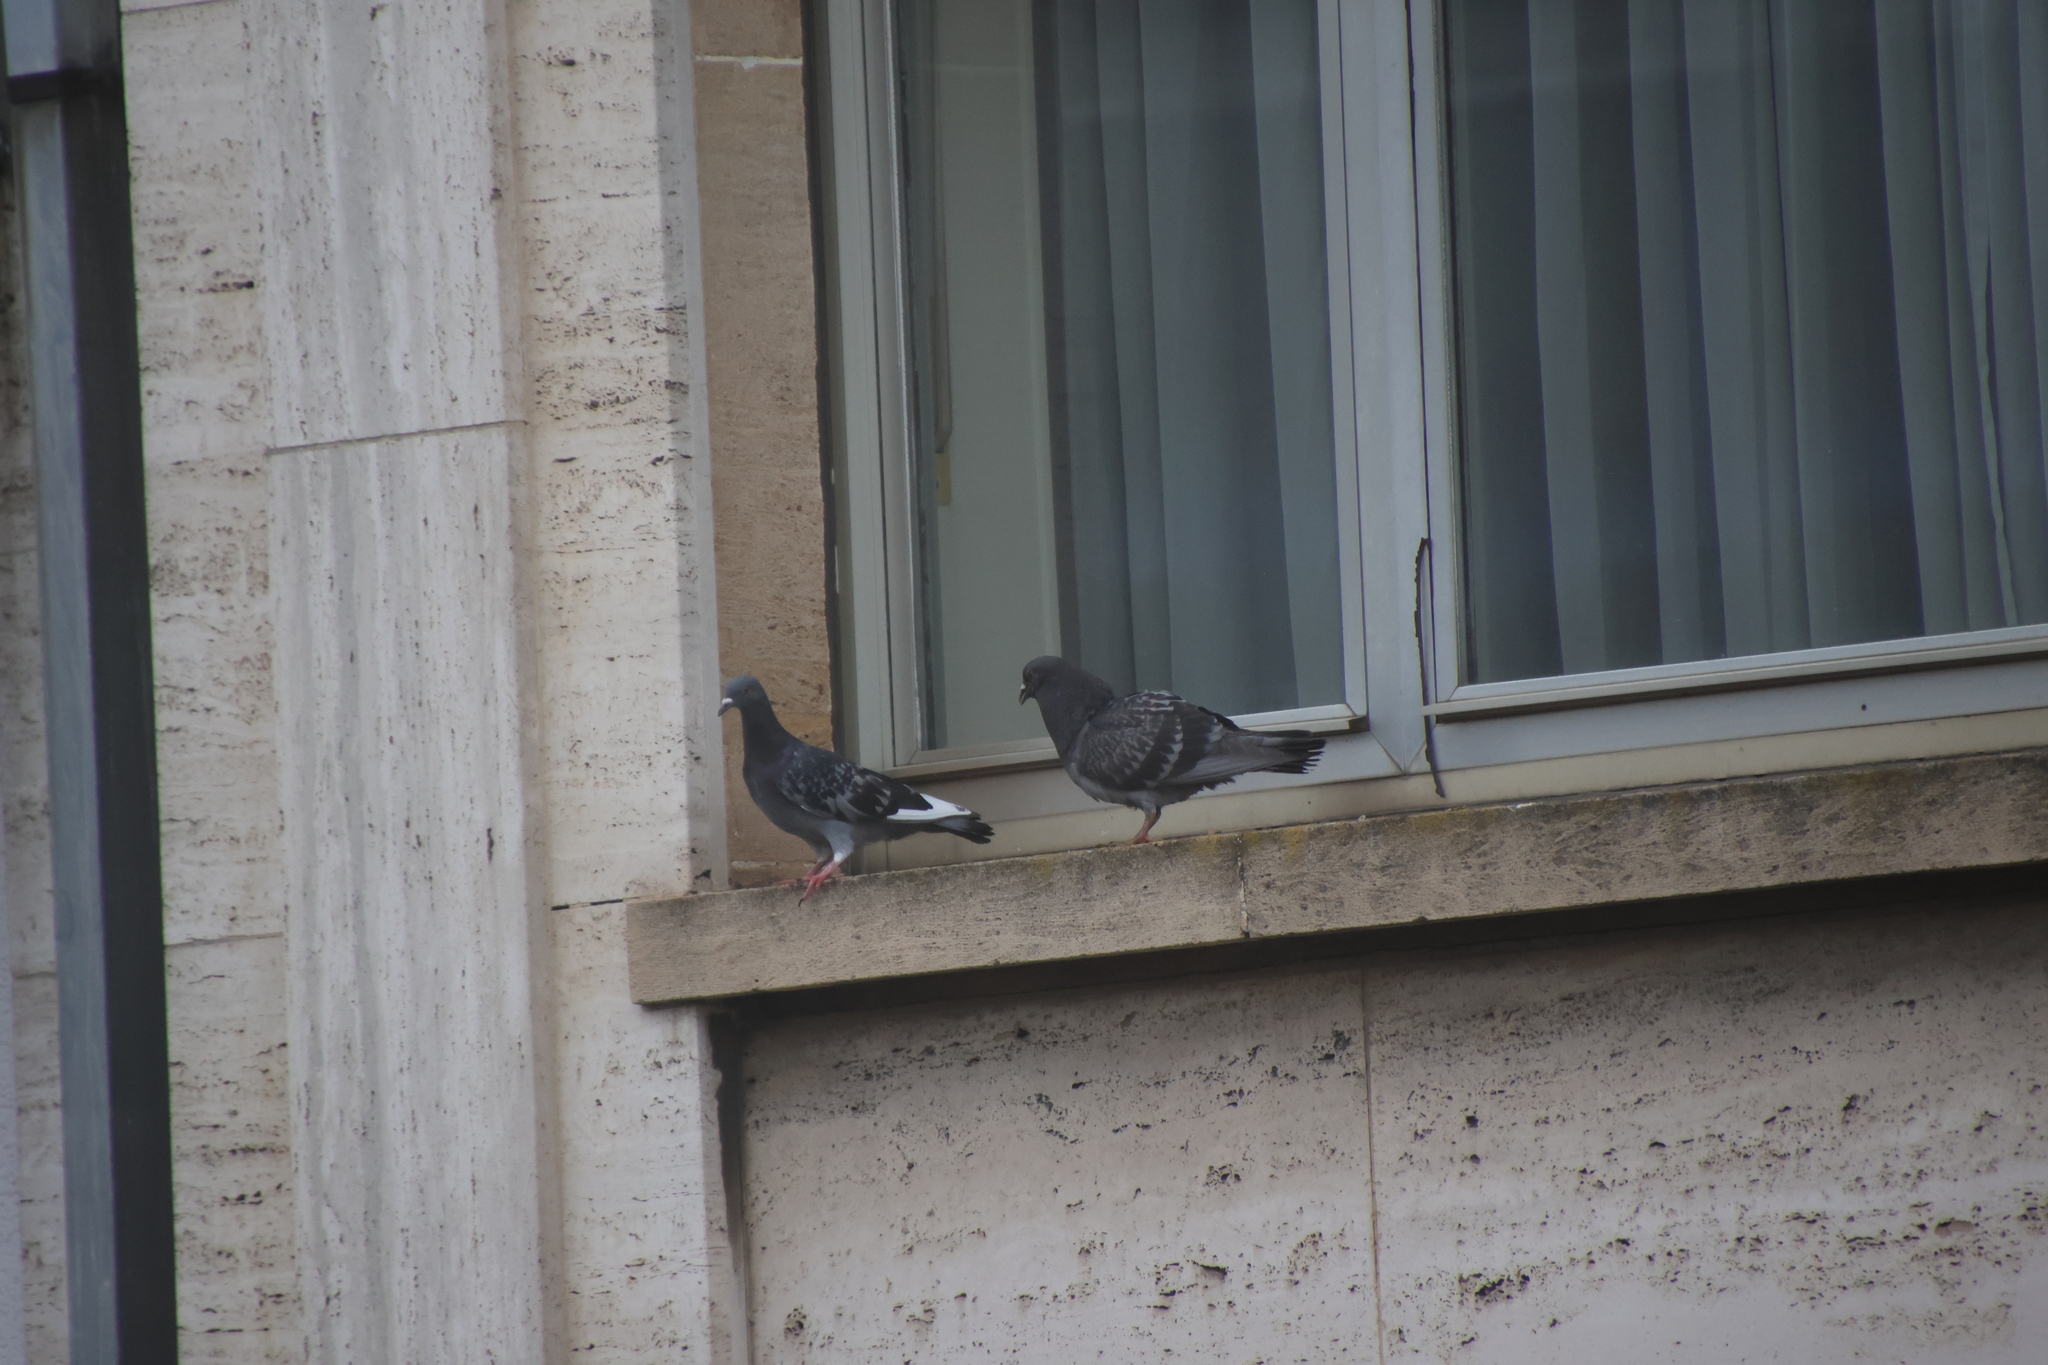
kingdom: Animalia
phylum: Chordata
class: Aves
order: Columbiformes
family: Columbidae
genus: Columba
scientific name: Columba livia
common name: Rock pigeon
